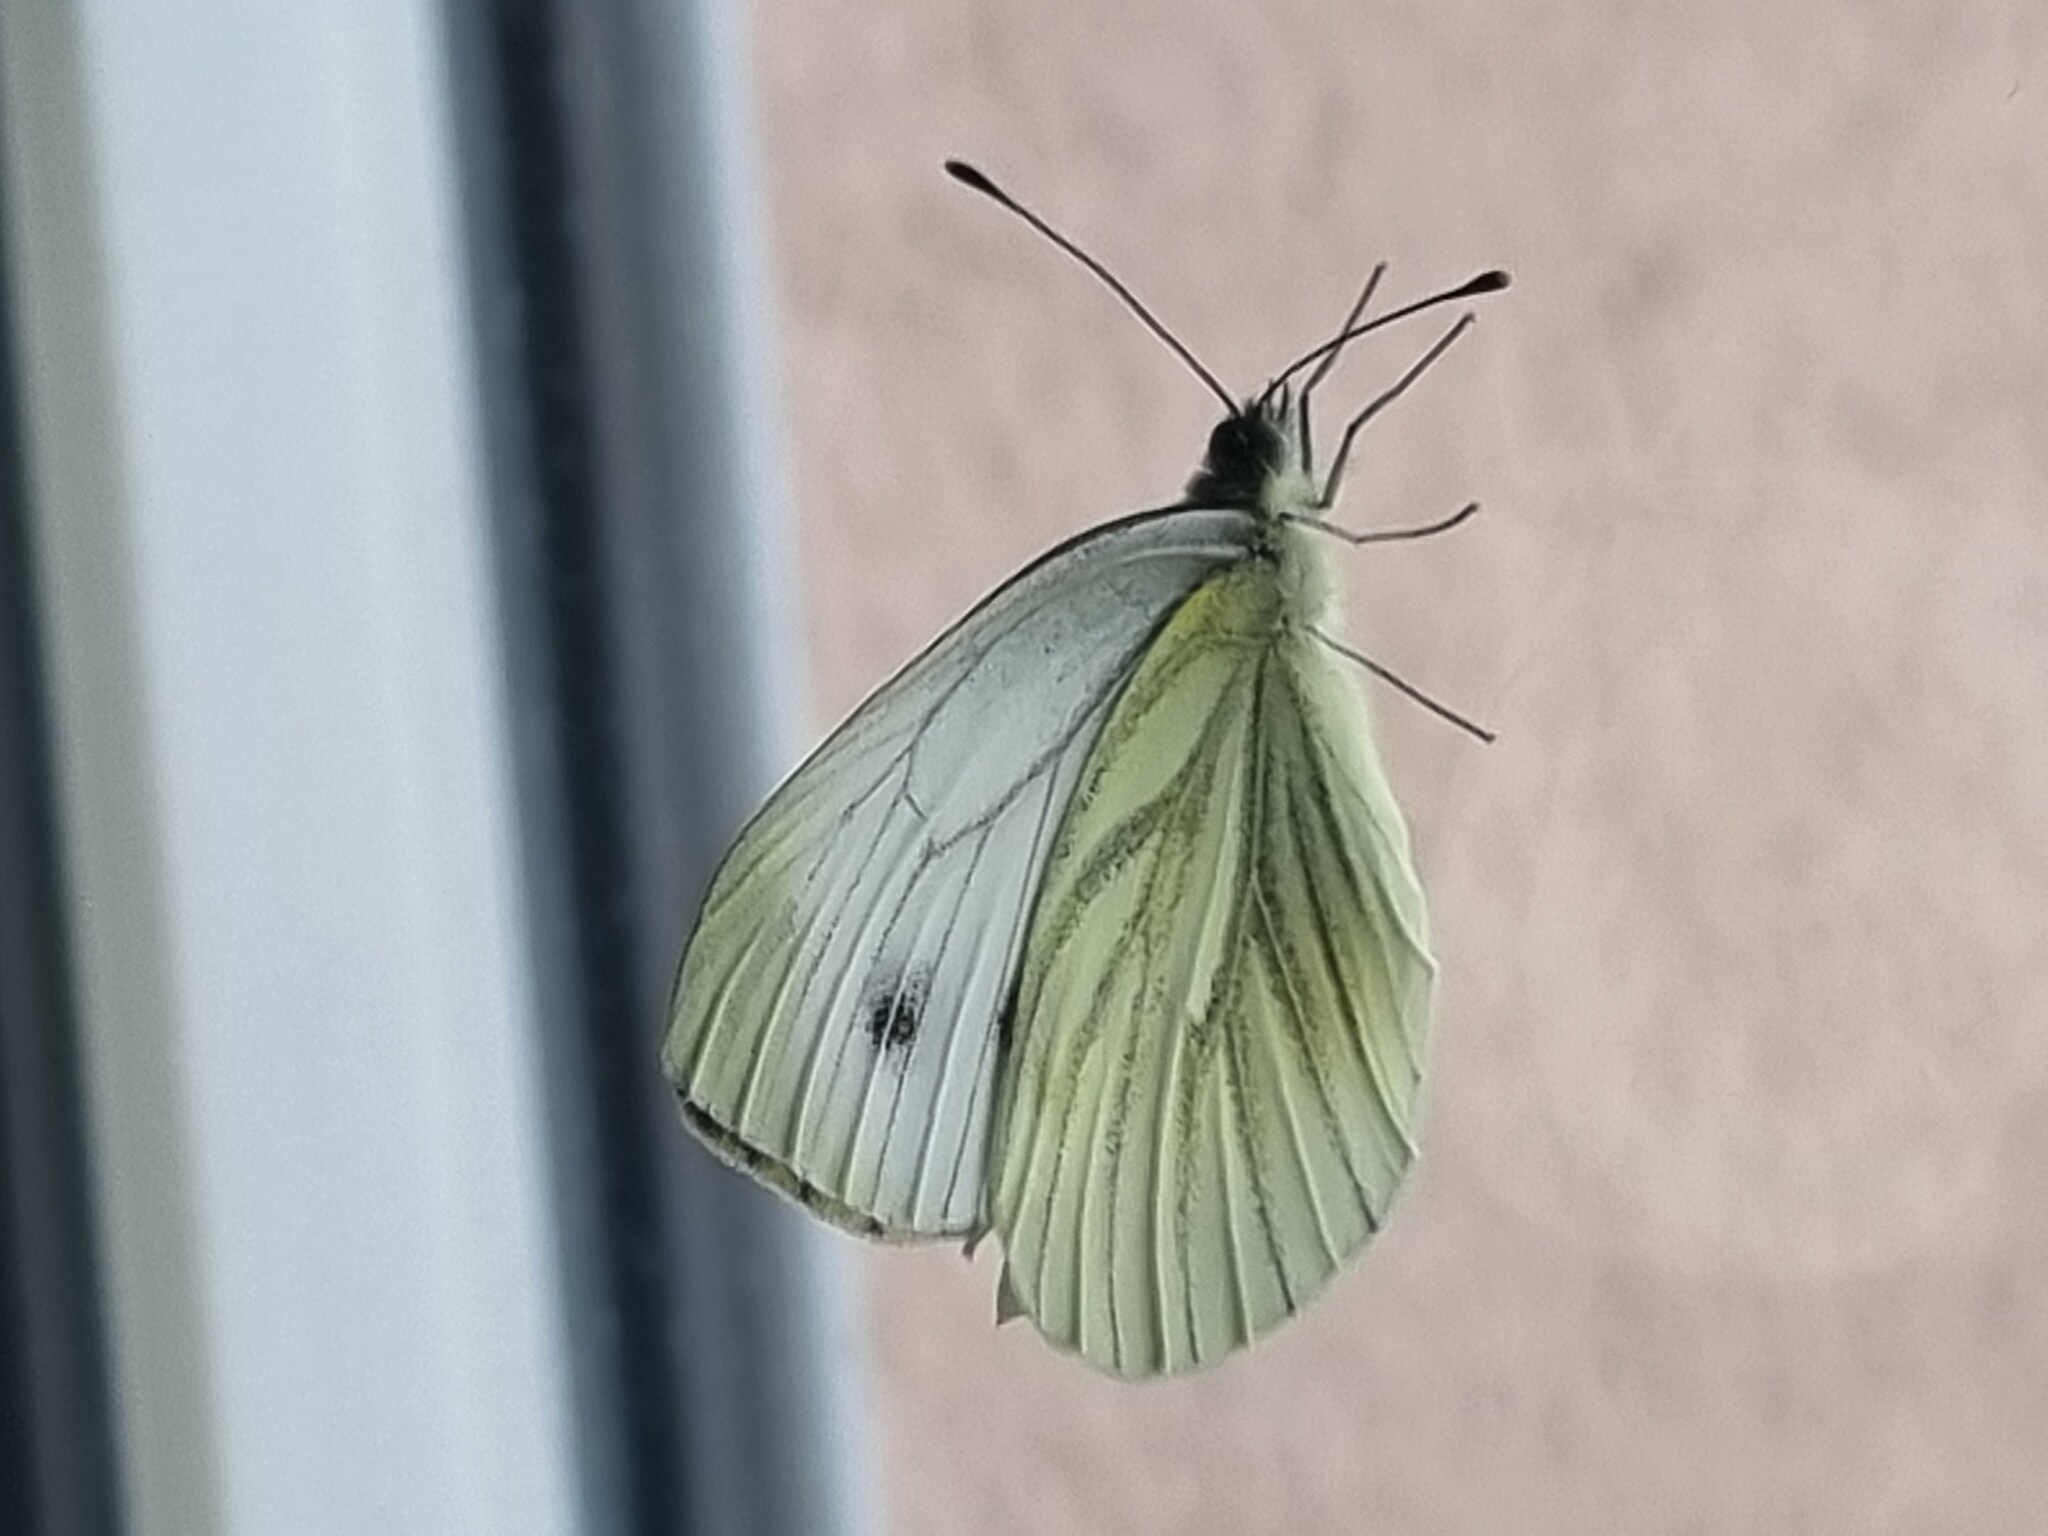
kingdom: Animalia
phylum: Arthropoda
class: Insecta
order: Lepidoptera
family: Pieridae
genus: Pieris
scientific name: Pieris napi
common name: Green-veined white
